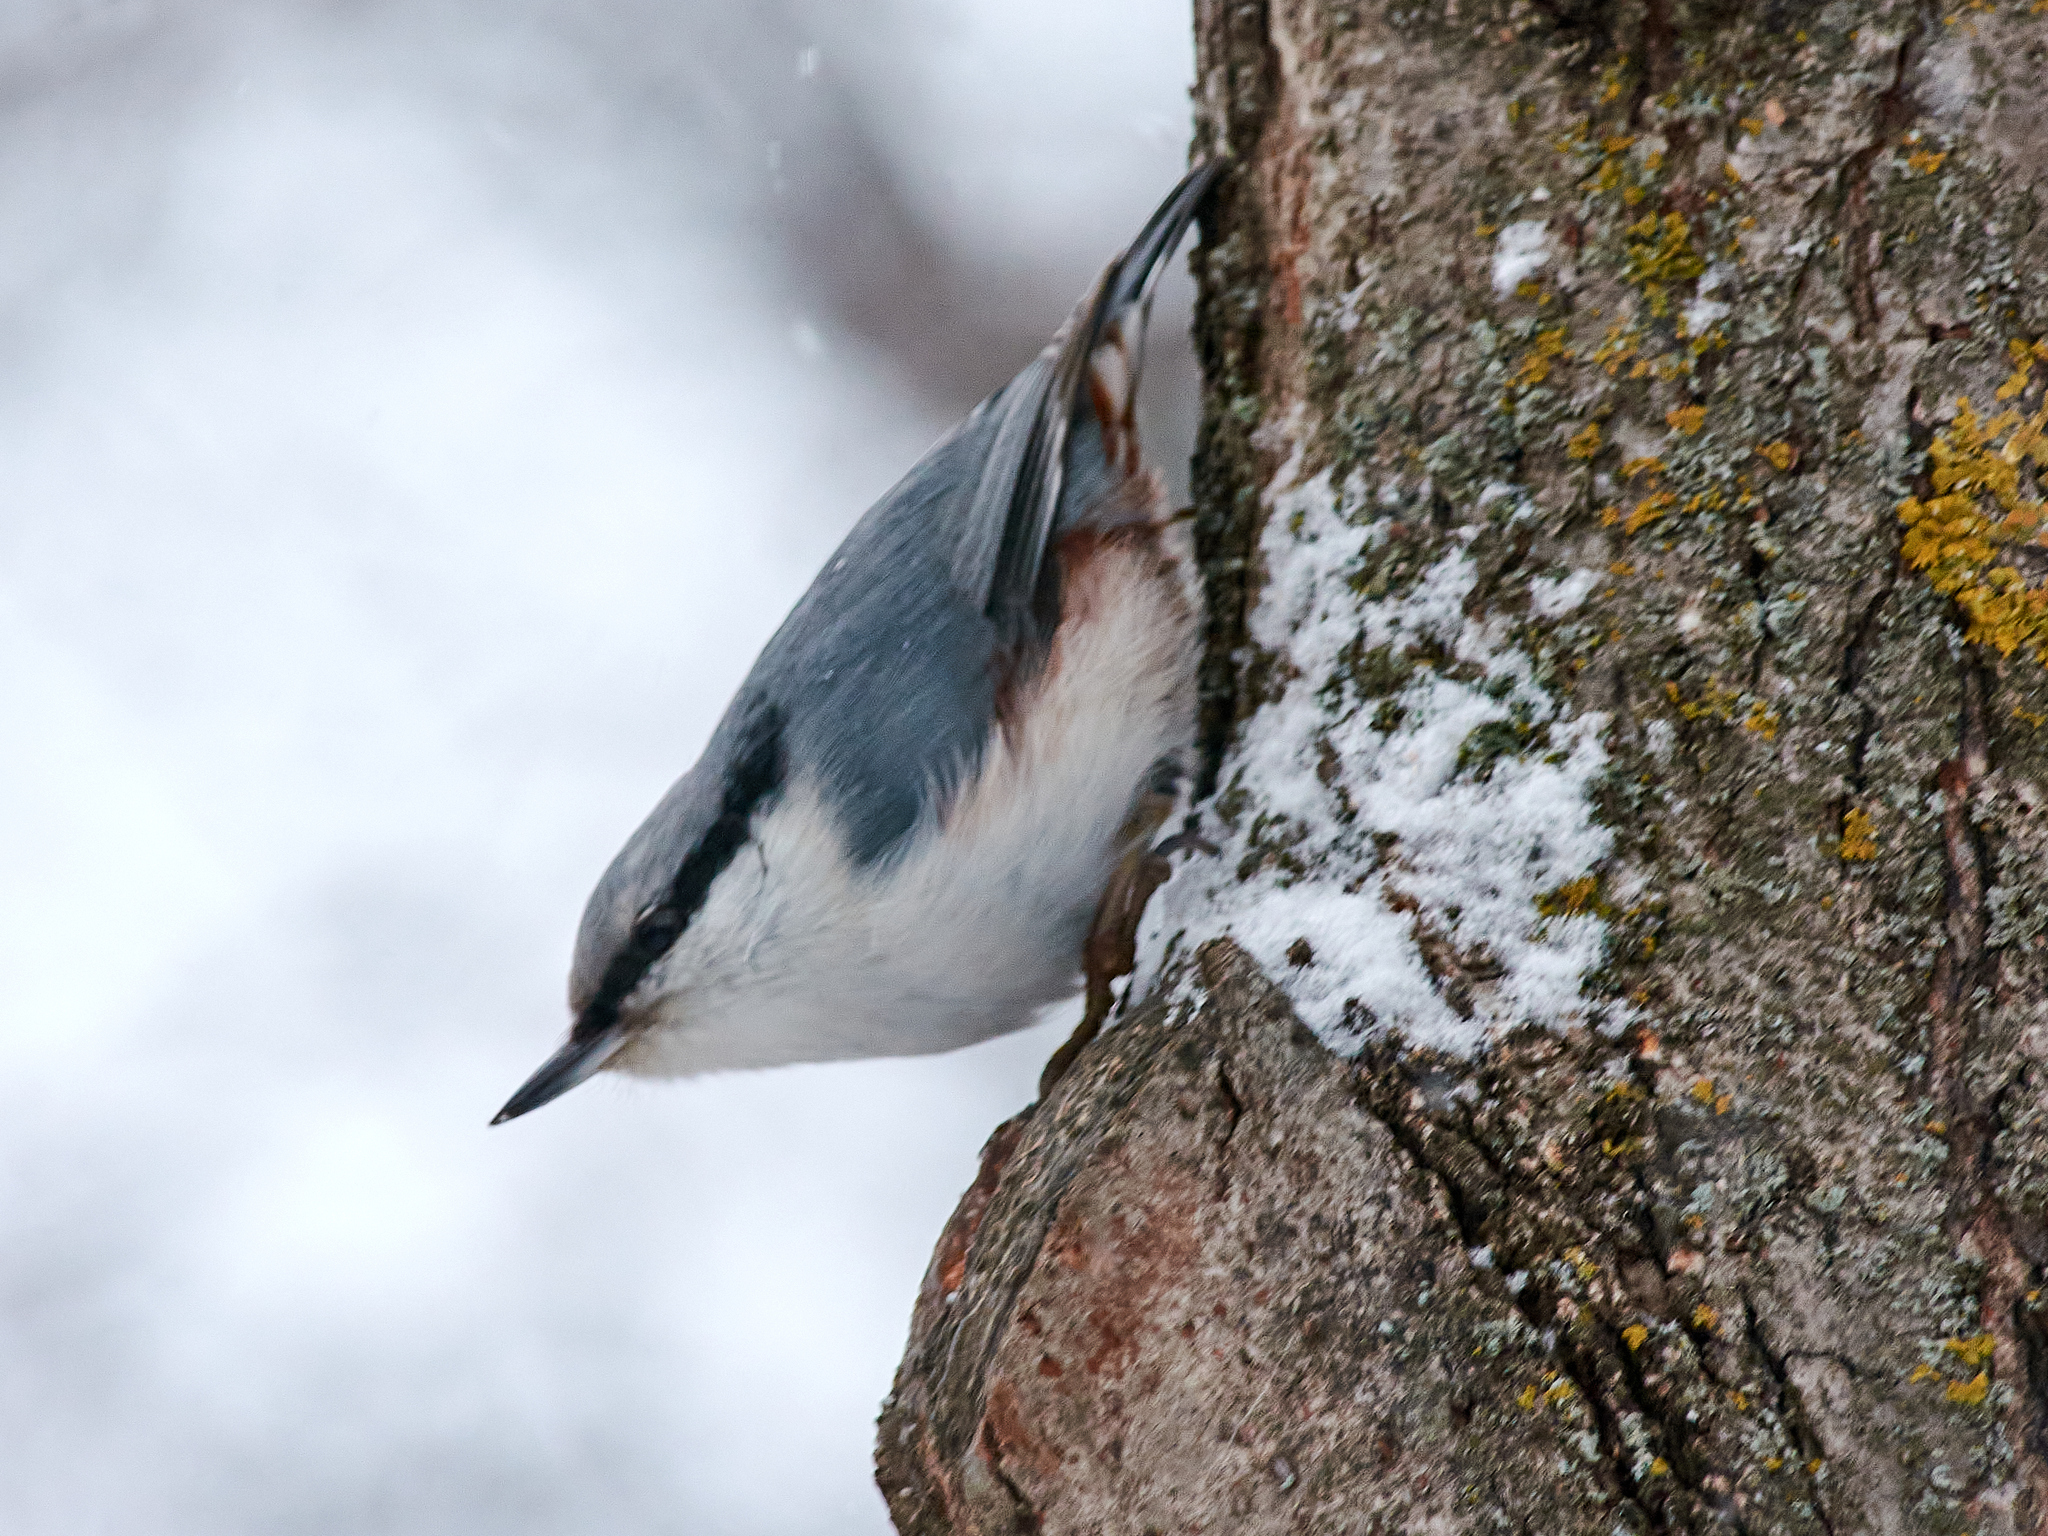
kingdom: Animalia
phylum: Chordata
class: Aves
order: Passeriformes
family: Sittidae
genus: Sitta
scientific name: Sitta europaea
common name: Eurasian nuthatch
